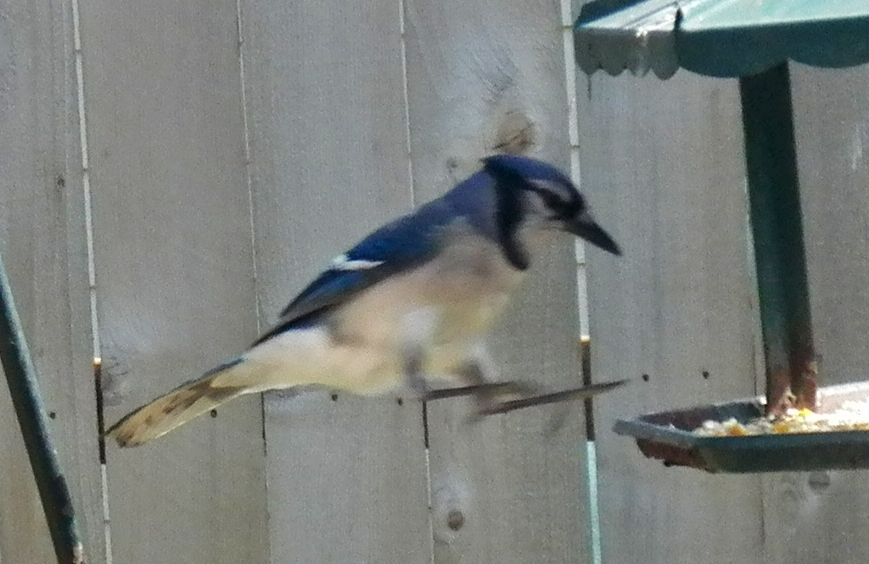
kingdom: Animalia
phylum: Chordata
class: Aves
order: Passeriformes
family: Corvidae
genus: Cyanocitta
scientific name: Cyanocitta cristata
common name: Blue jay
